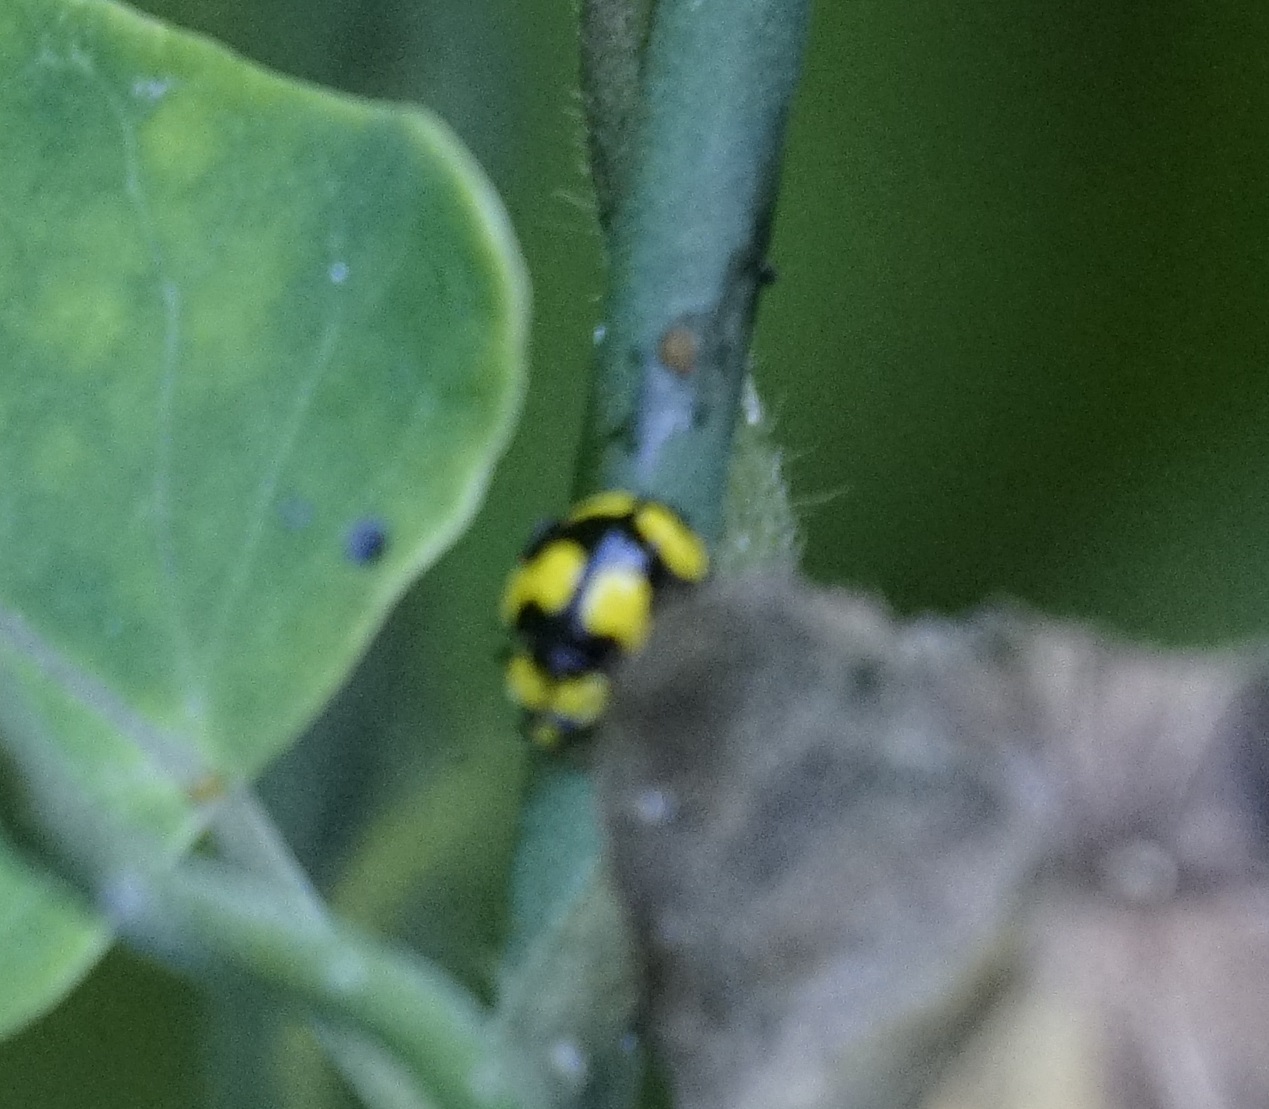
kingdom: Animalia
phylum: Arthropoda
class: Insecta
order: Coleoptera
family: Coccinellidae
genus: Illeis
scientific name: Illeis galbula
